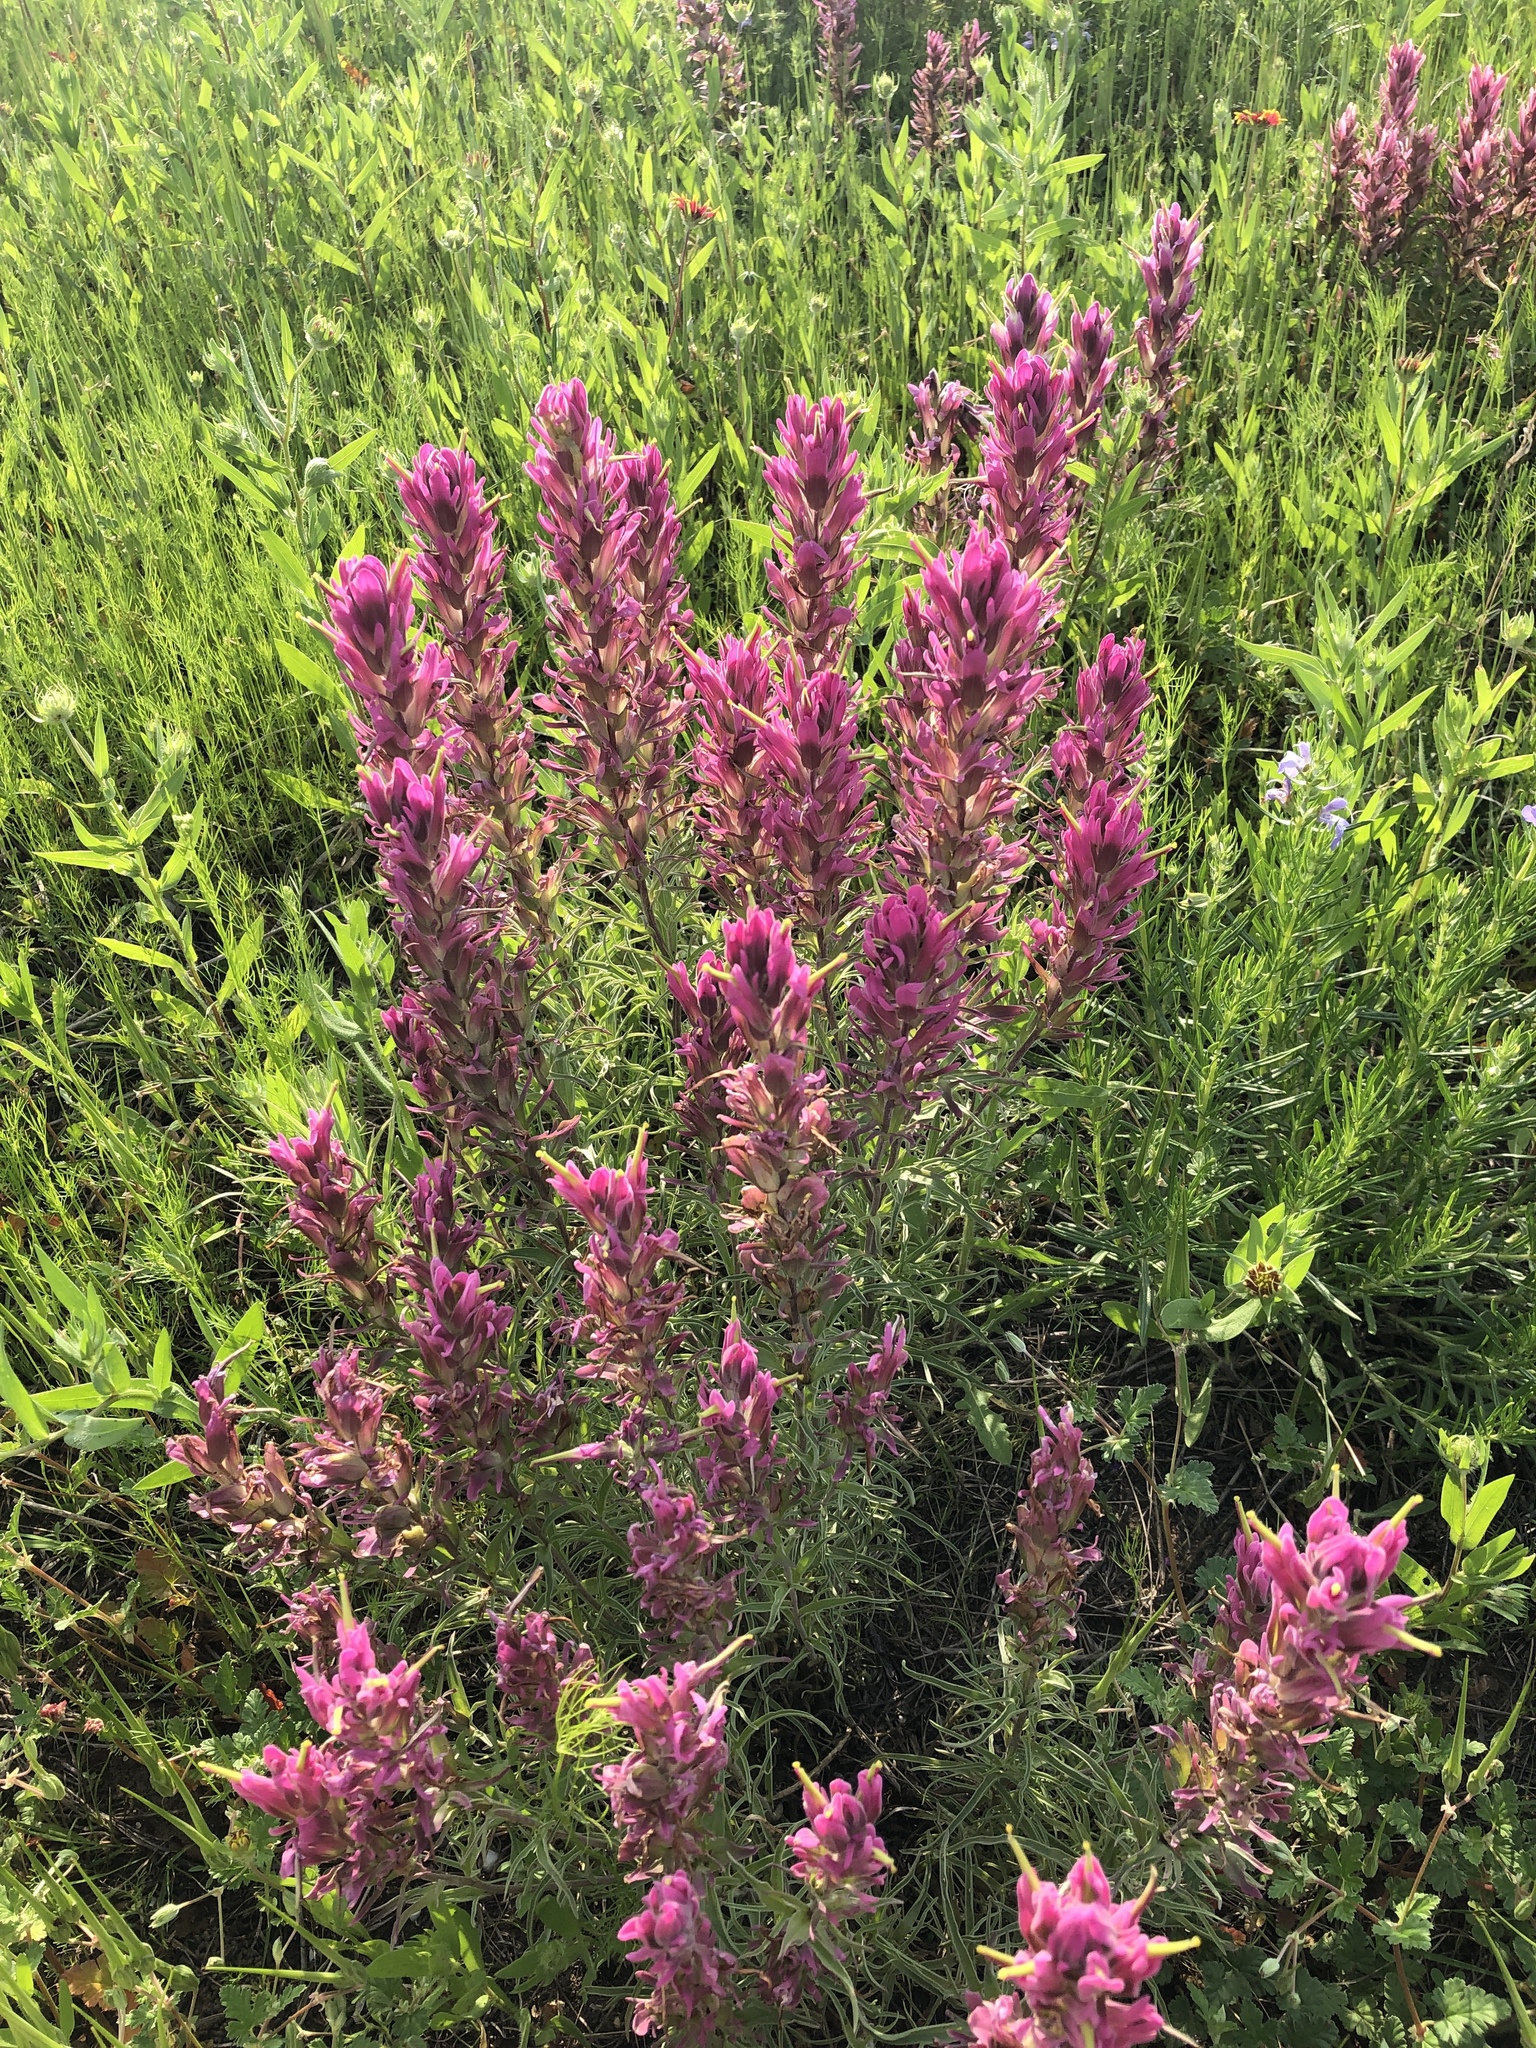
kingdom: Plantae
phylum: Tracheophyta
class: Magnoliopsida
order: Lamiales
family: Orobanchaceae
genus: Castilleja
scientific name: Castilleja purpurea
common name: Plains paintbrush
